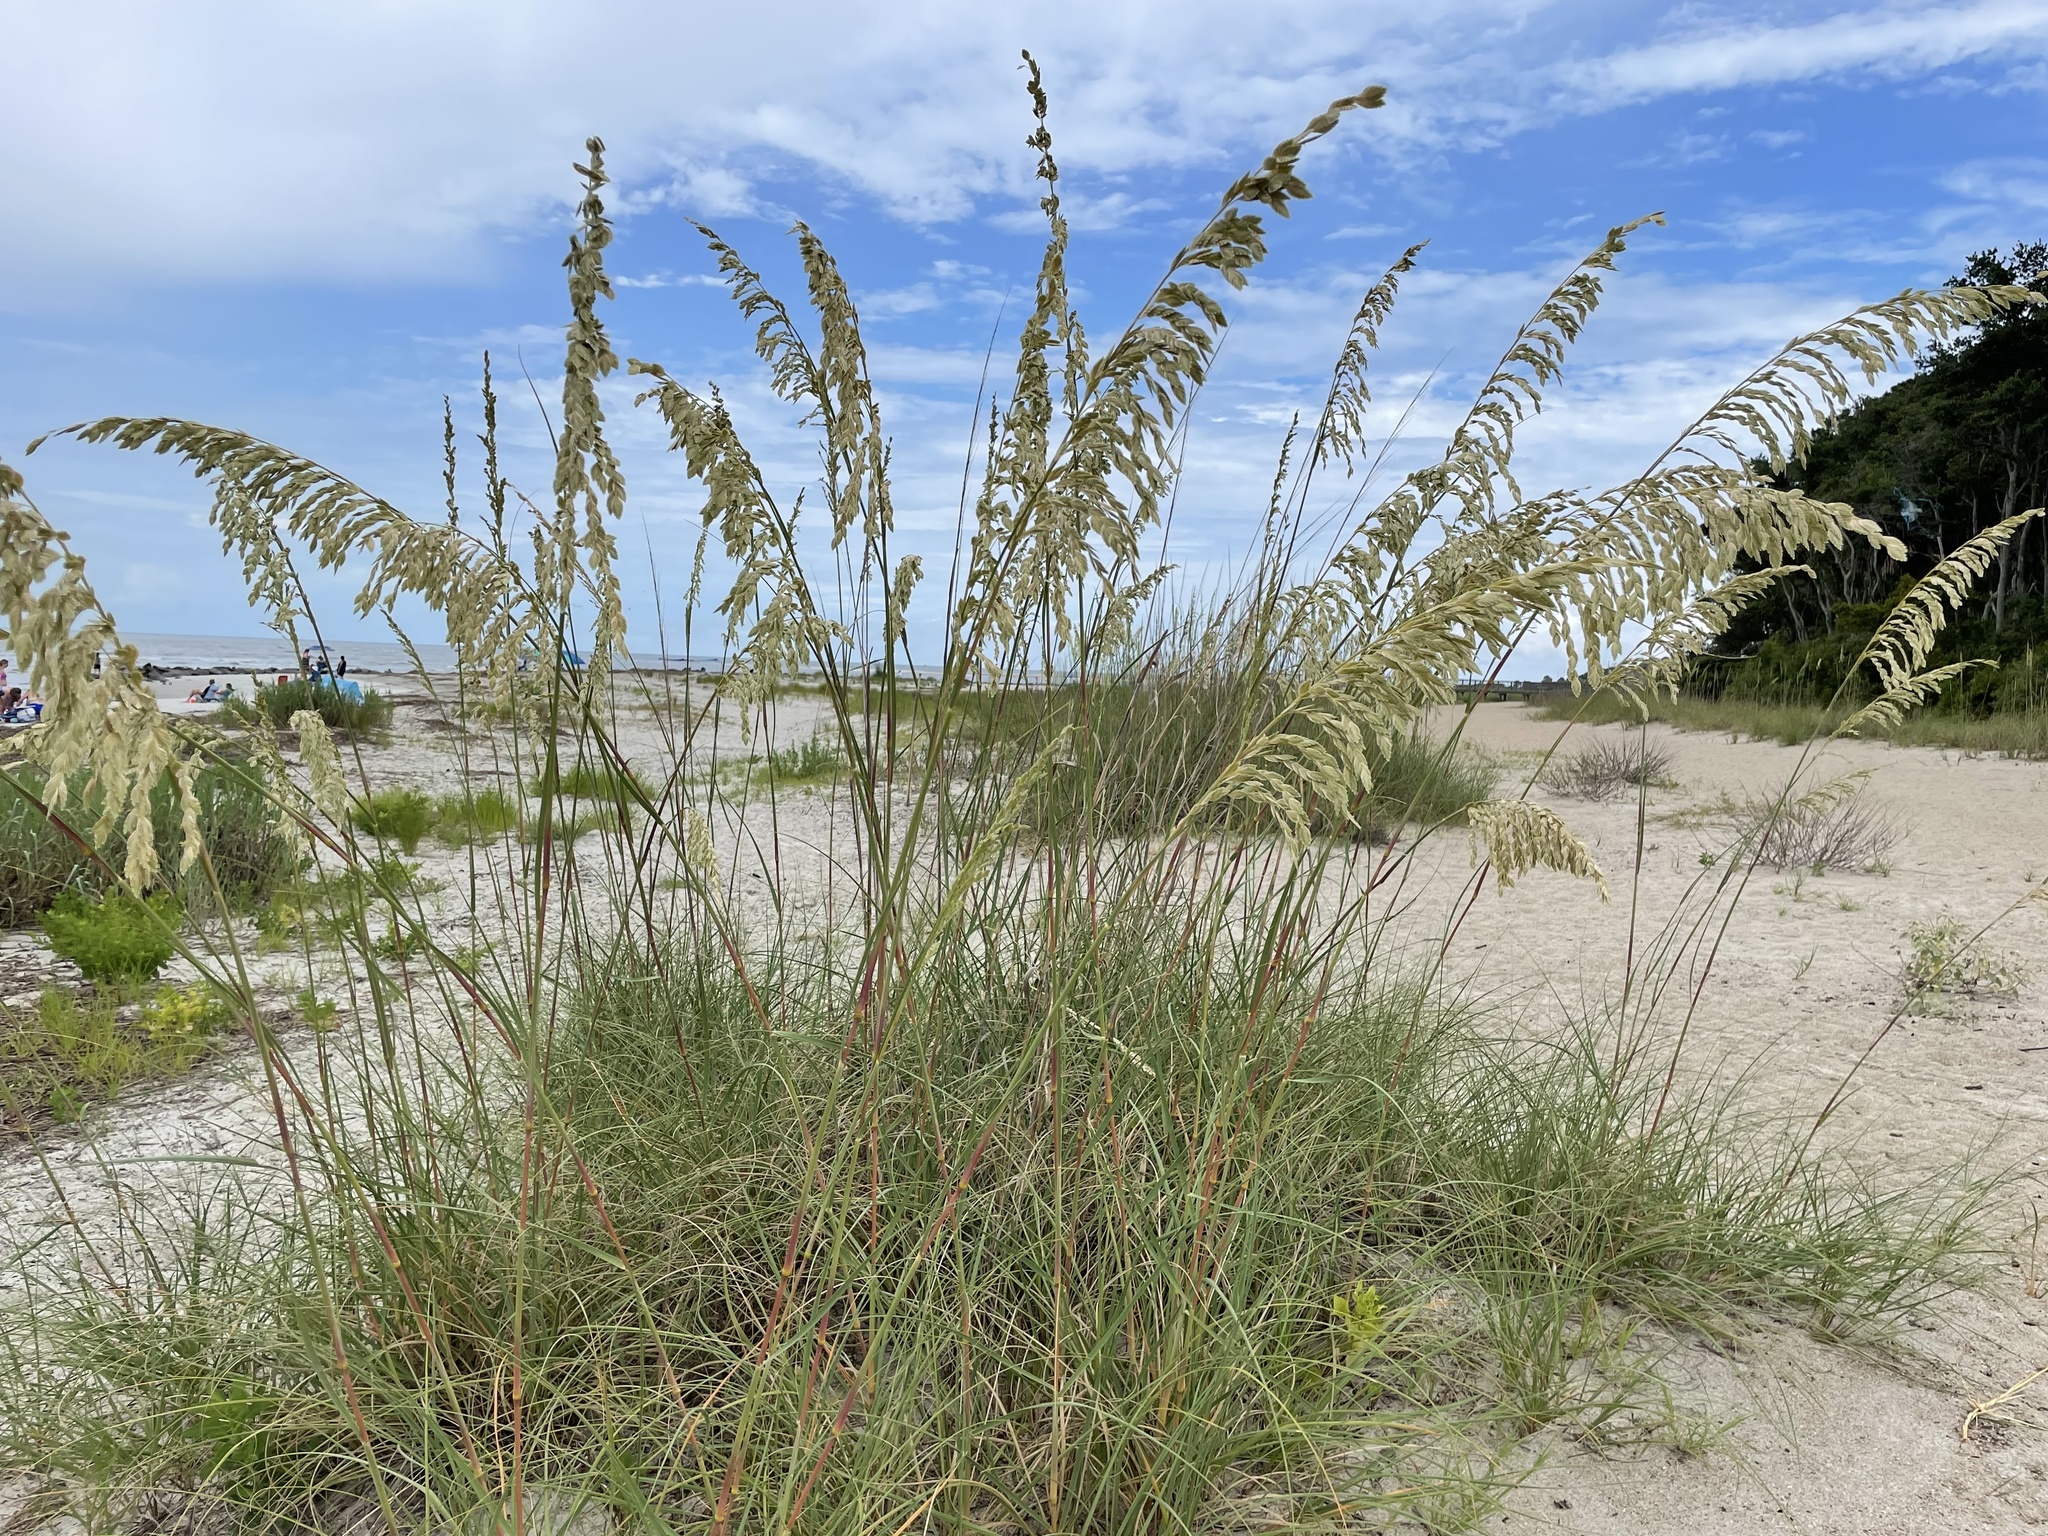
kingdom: Plantae
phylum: Tracheophyta
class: Liliopsida
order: Poales
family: Poaceae
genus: Uniola
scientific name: Uniola paniculata
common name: Seaside-oats
